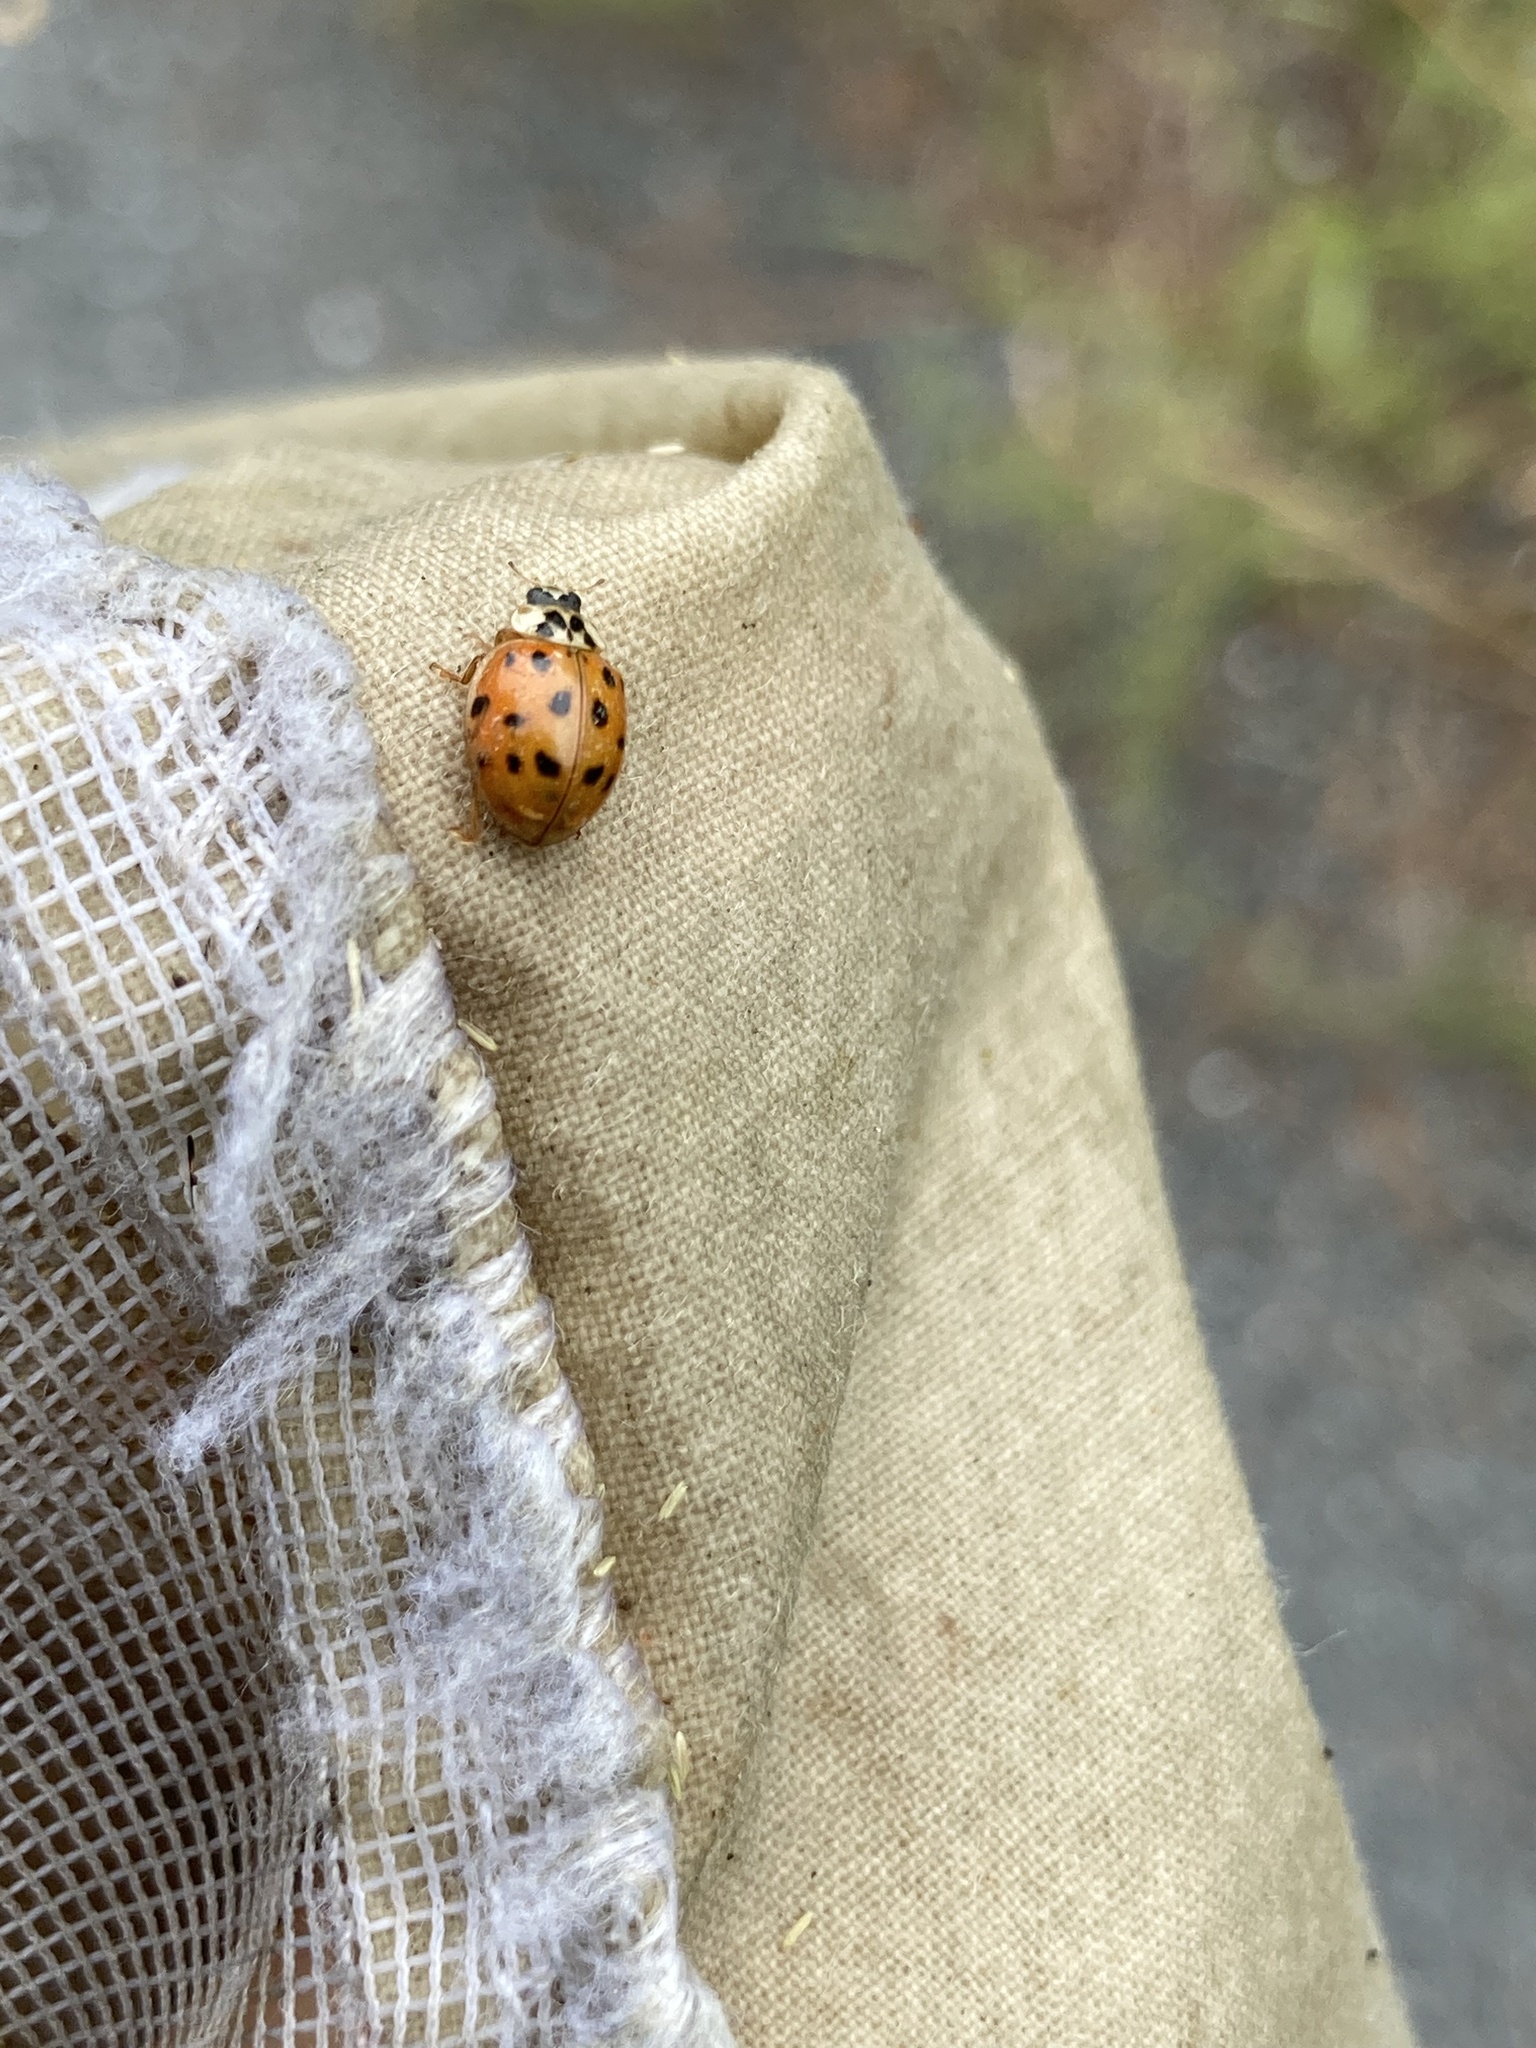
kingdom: Animalia
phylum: Arthropoda
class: Insecta
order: Coleoptera
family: Coccinellidae
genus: Harmonia
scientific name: Harmonia axyridis
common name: Harlequin ladybird
